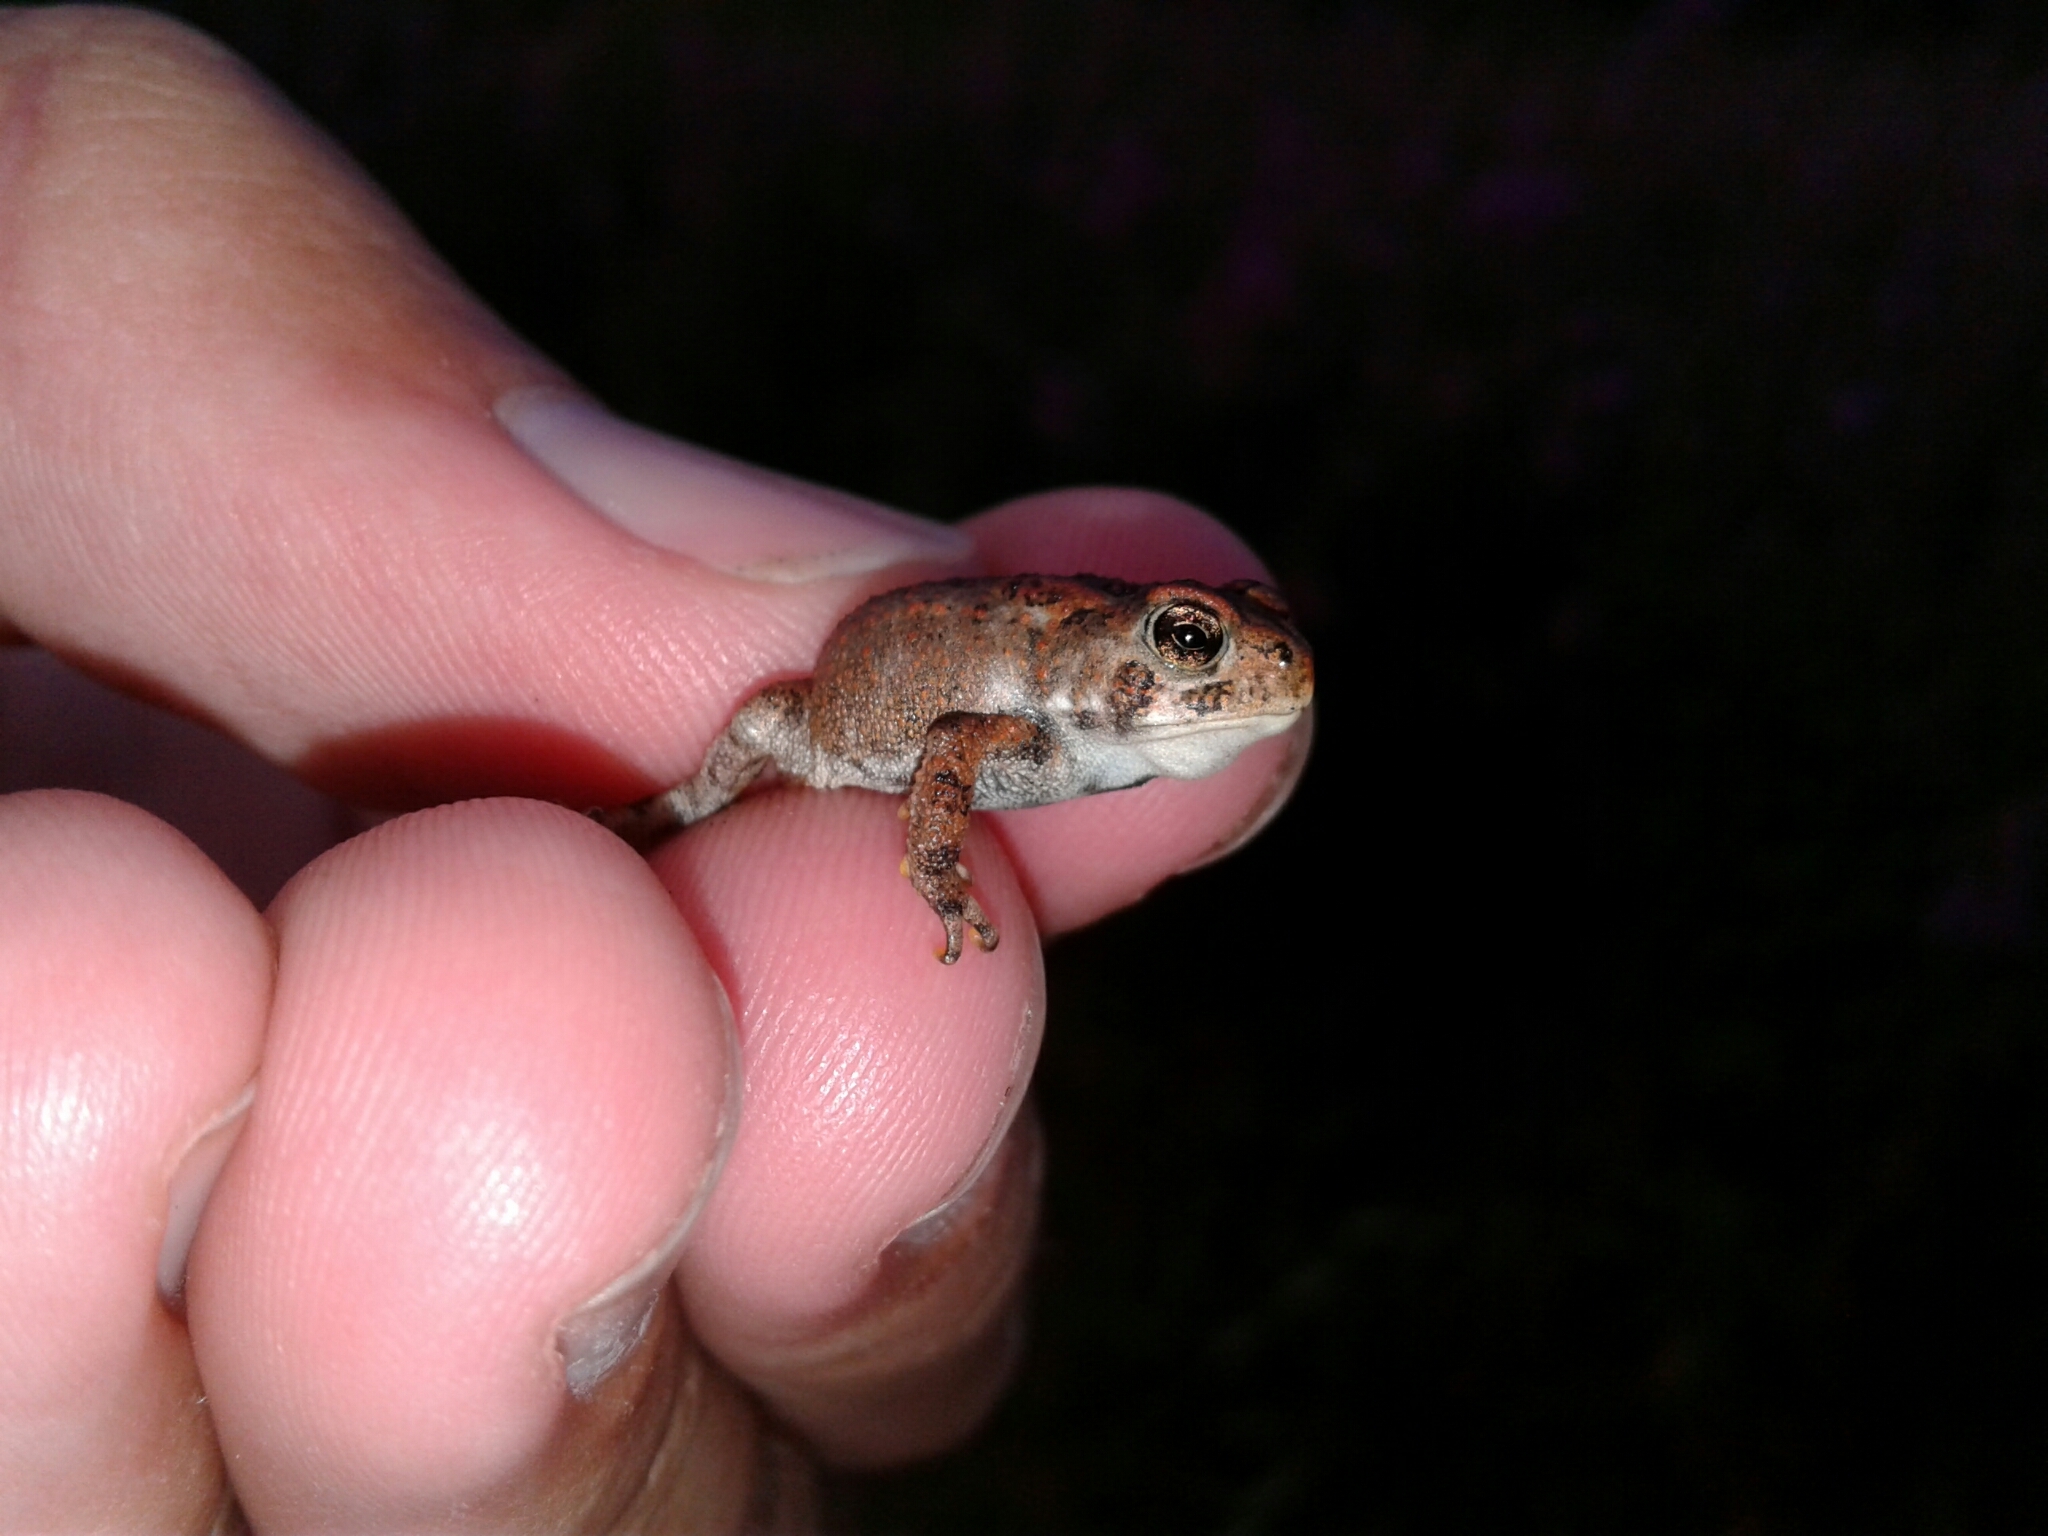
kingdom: Animalia
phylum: Chordata
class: Amphibia
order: Anura
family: Bufonidae
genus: Anaxyrus
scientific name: Anaxyrus americanus
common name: American toad
